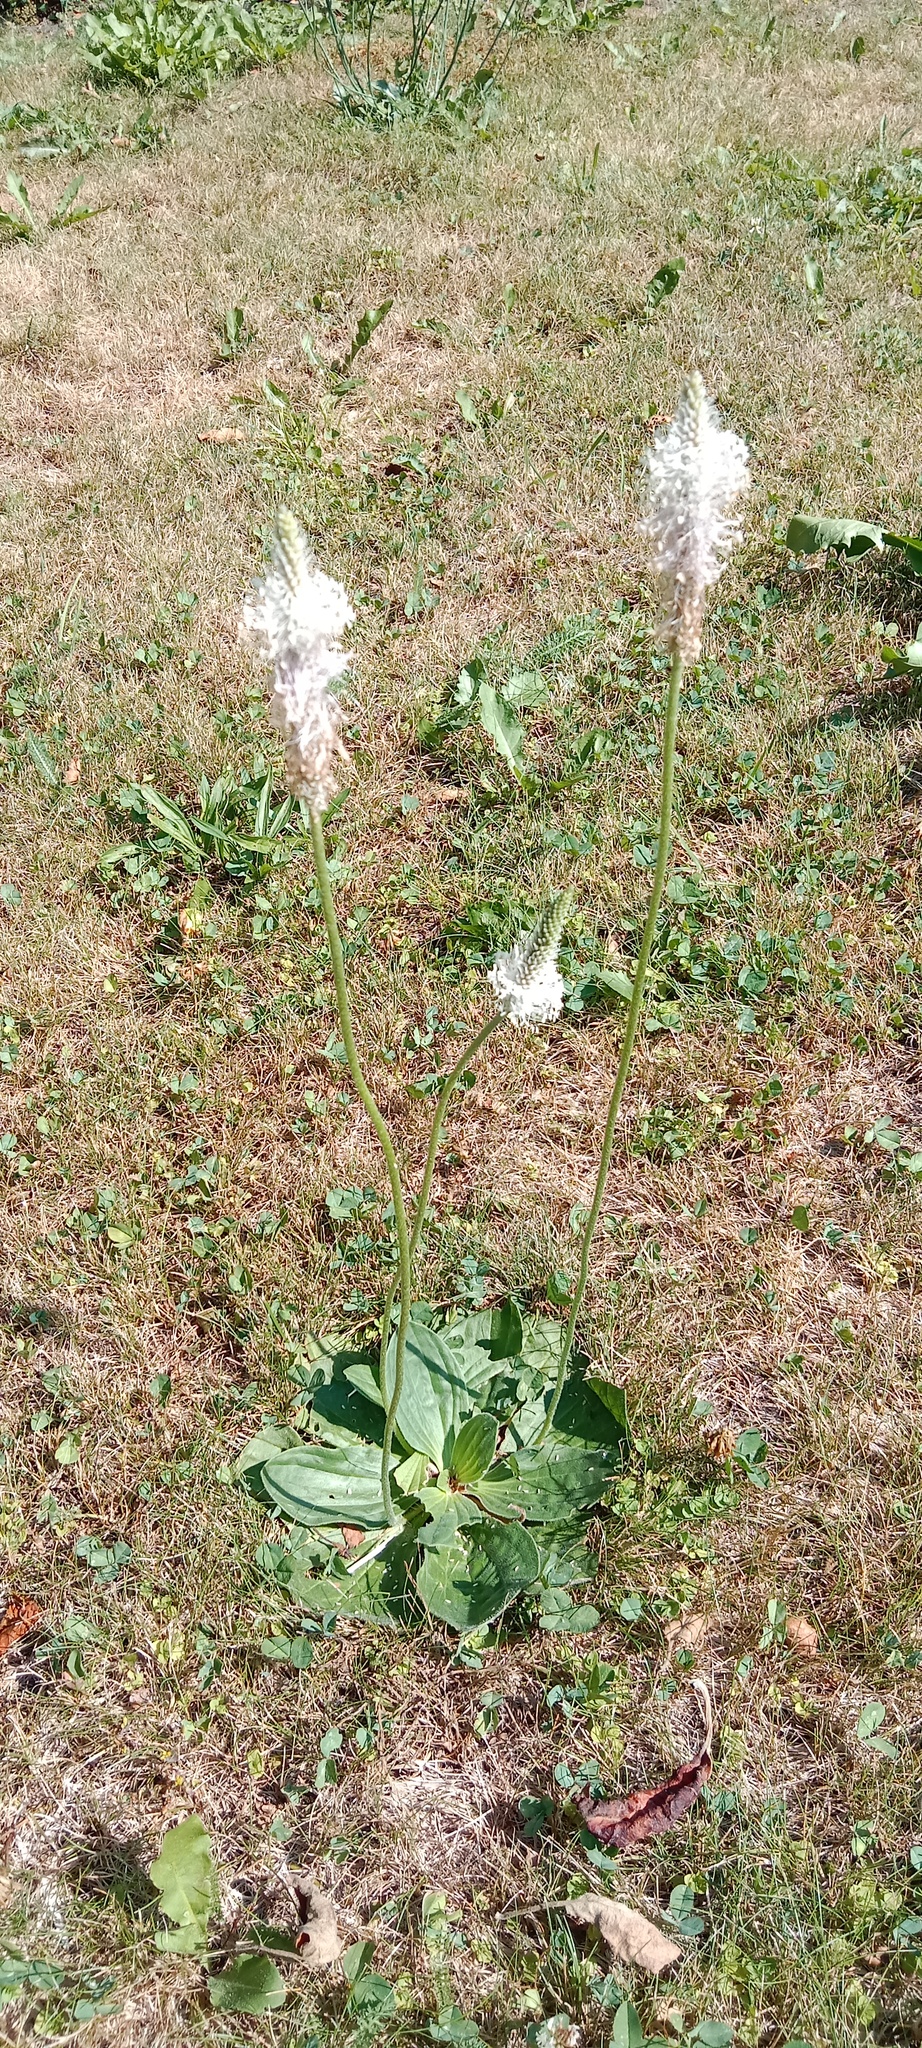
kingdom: Plantae
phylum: Tracheophyta
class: Magnoliopsida
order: Lamiales
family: Plantaginaceae
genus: Plantago
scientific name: Plantago media
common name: Hoary plantain
